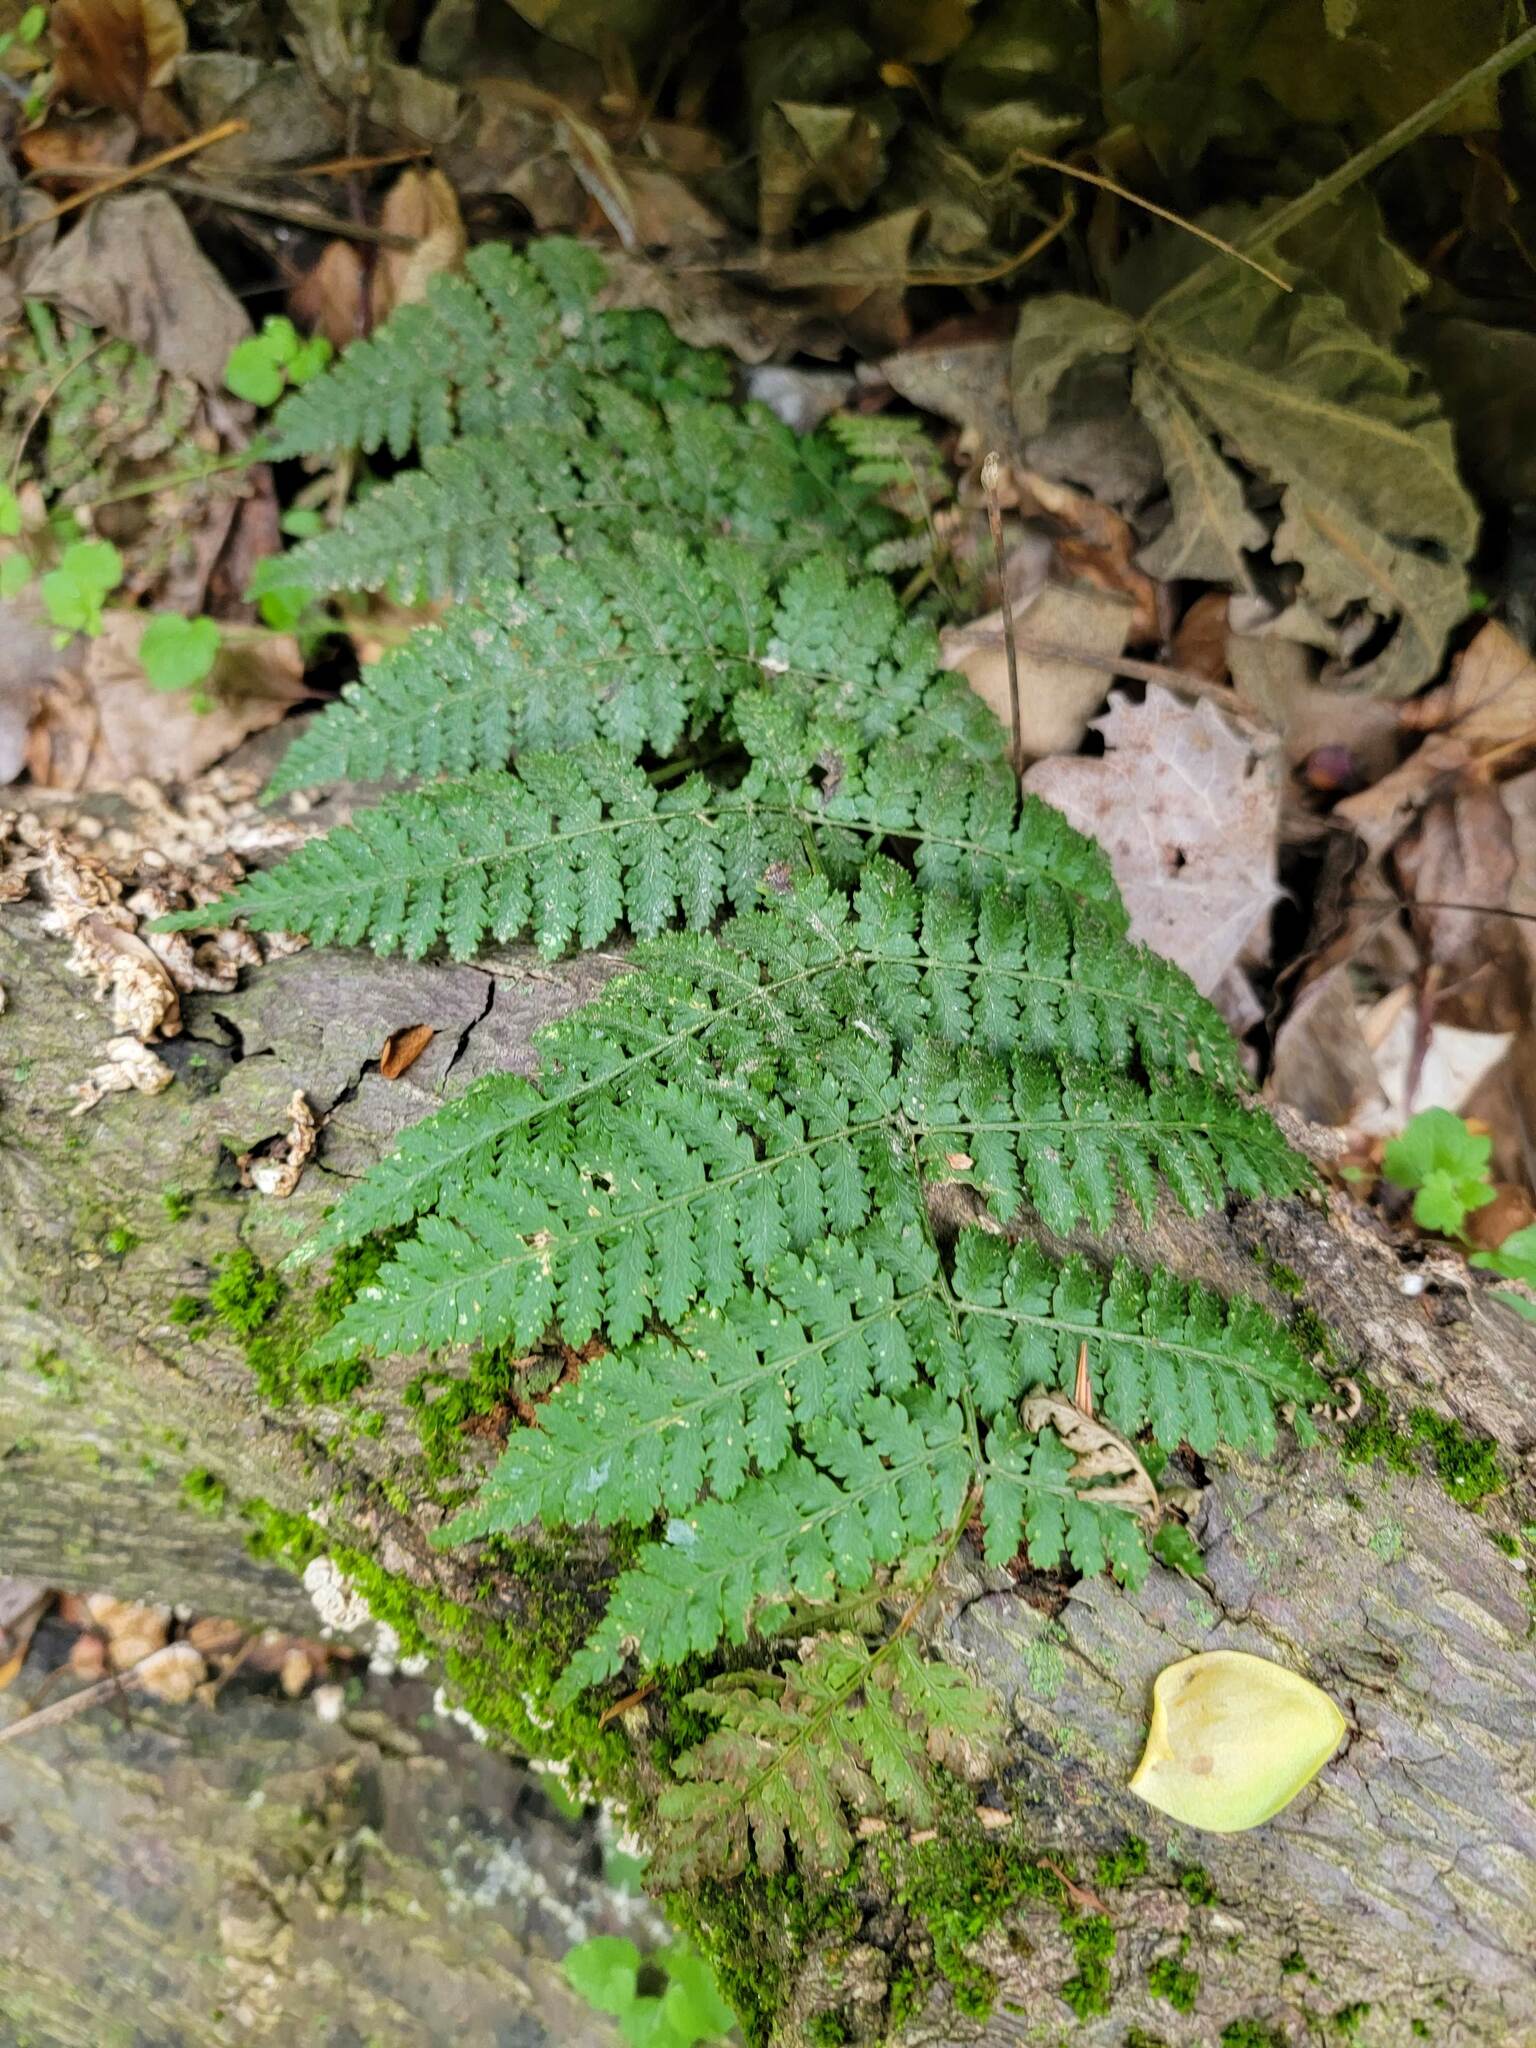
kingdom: Plantae
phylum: Tracheophyta
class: Polypodiopsida
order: Polypodiales
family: Dryopteridaceae
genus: Dryopteris
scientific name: Dryopteris intermedia
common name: Evergreen wood fern
